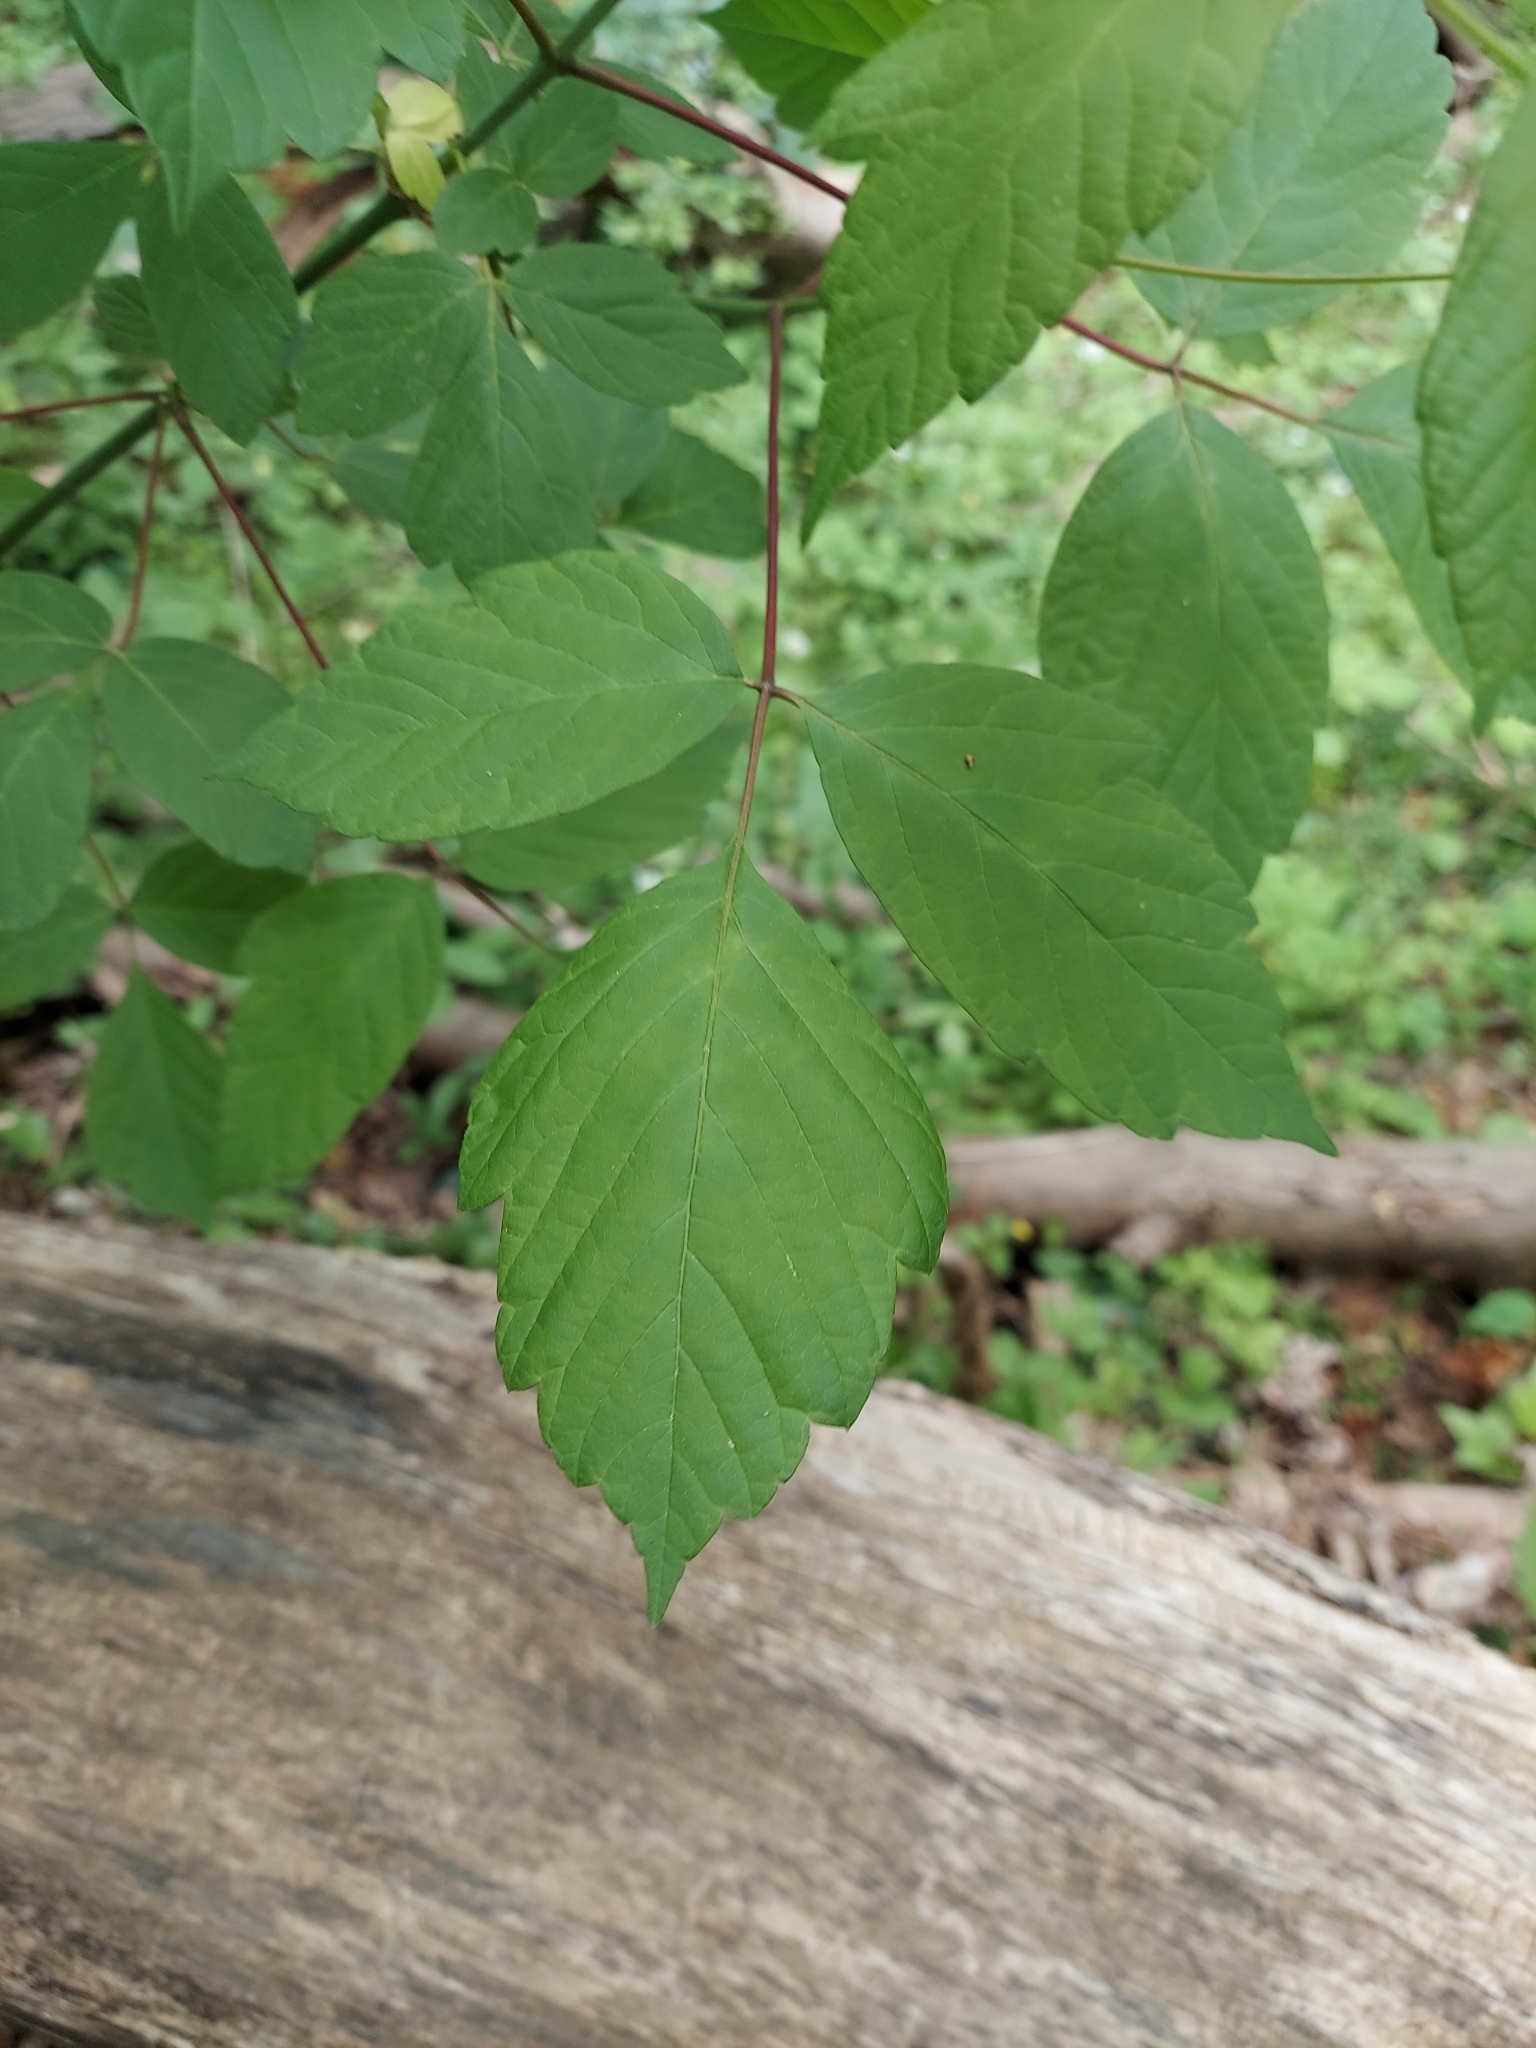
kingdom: Plantae
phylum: Tracheophyta
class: Magnoliopsida
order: Sapindales
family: Sapindaceae
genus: Acer
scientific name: Acer negundo
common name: Ashleaf maple
